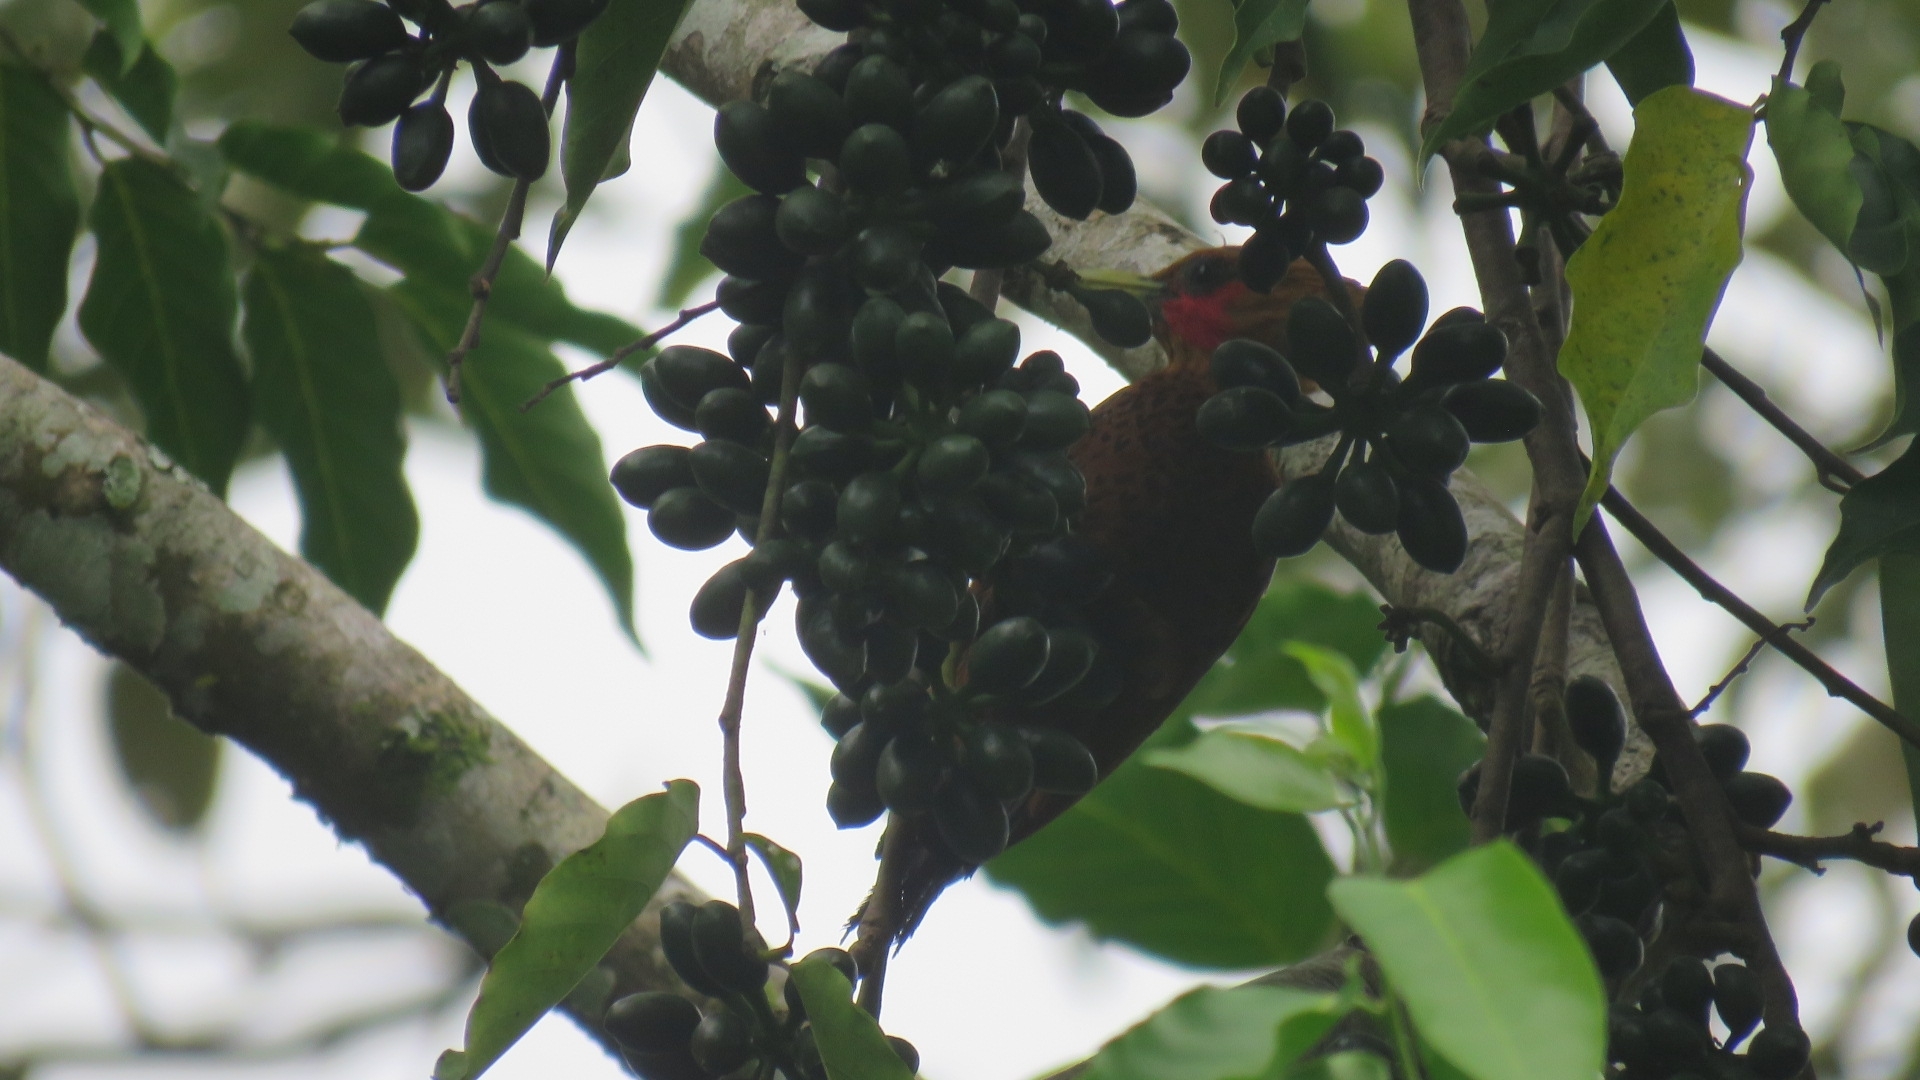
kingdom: Animalia
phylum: Chordata
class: Aves
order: Piciformes
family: Picidae
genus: Celeus
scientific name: Celeus castaneus
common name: Chestnut-colored woodpecker
